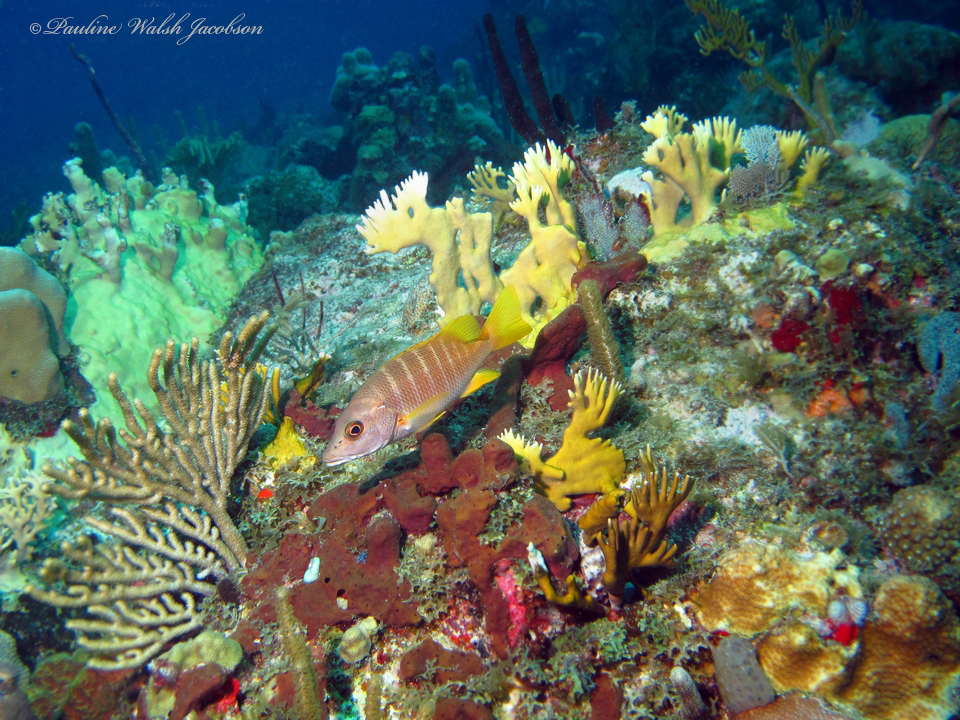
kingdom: Animalia
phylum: Chordata
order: Perciformes
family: Lutjanidae
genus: Lutjanus
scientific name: Lutjanus apodus
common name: Schoolmaster
